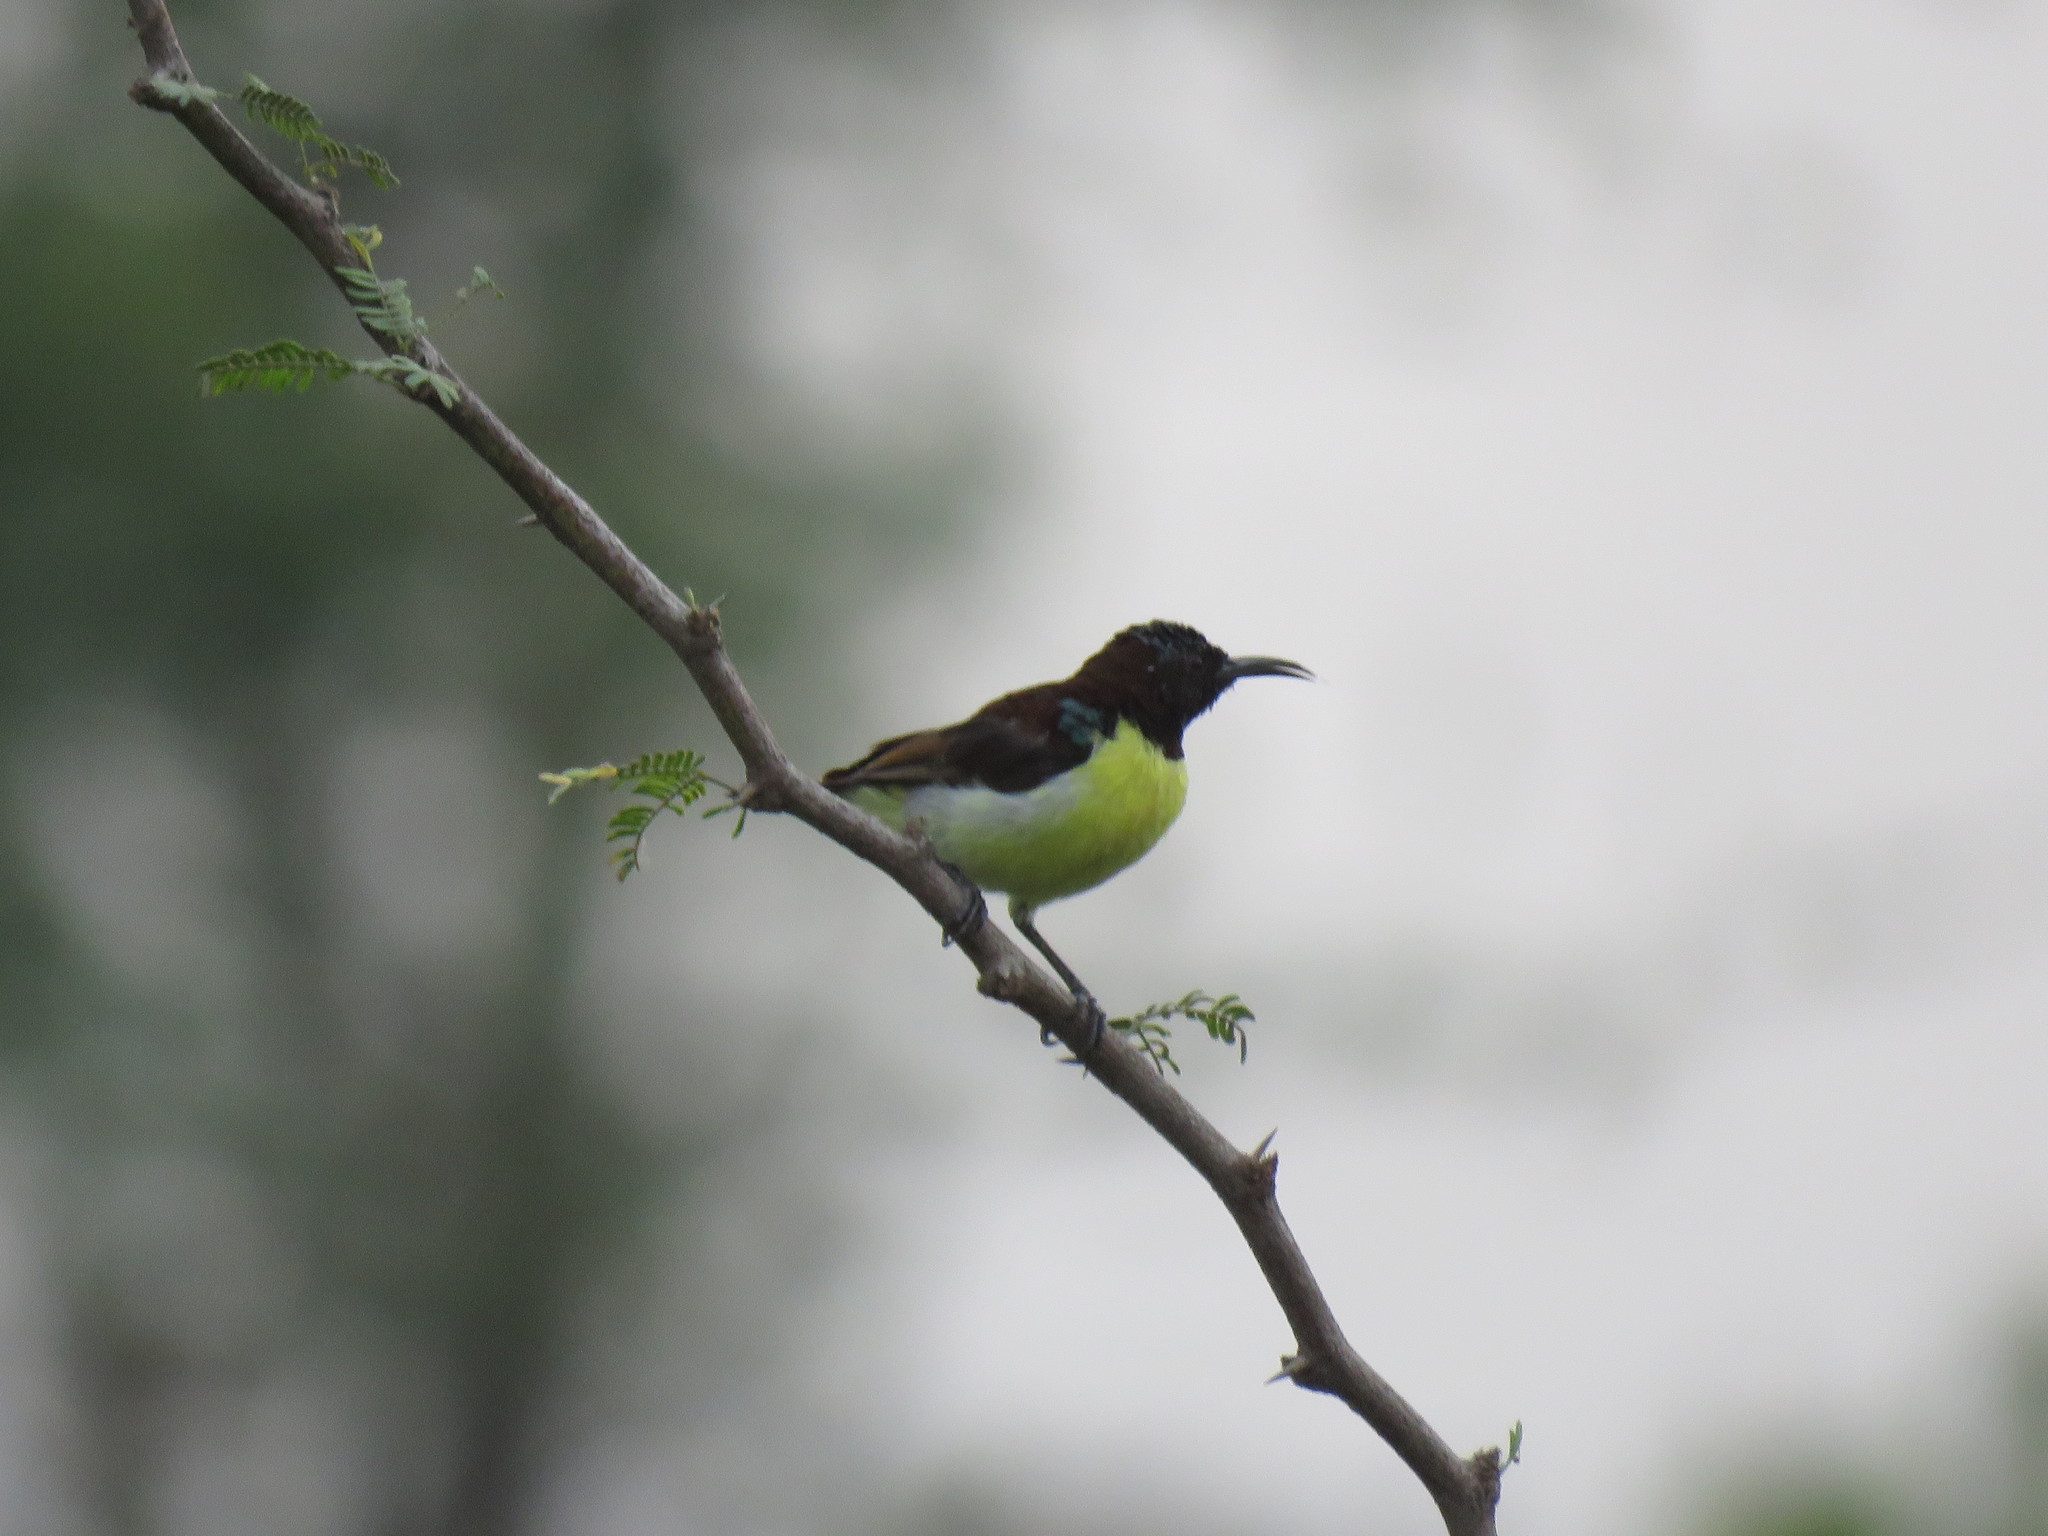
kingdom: Animalia
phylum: Chordata
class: Aves
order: Passeriformes
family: Nectariniidae
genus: Leptocoma
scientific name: Leptocoma zeylonica
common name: Purple-rumped sunbird
